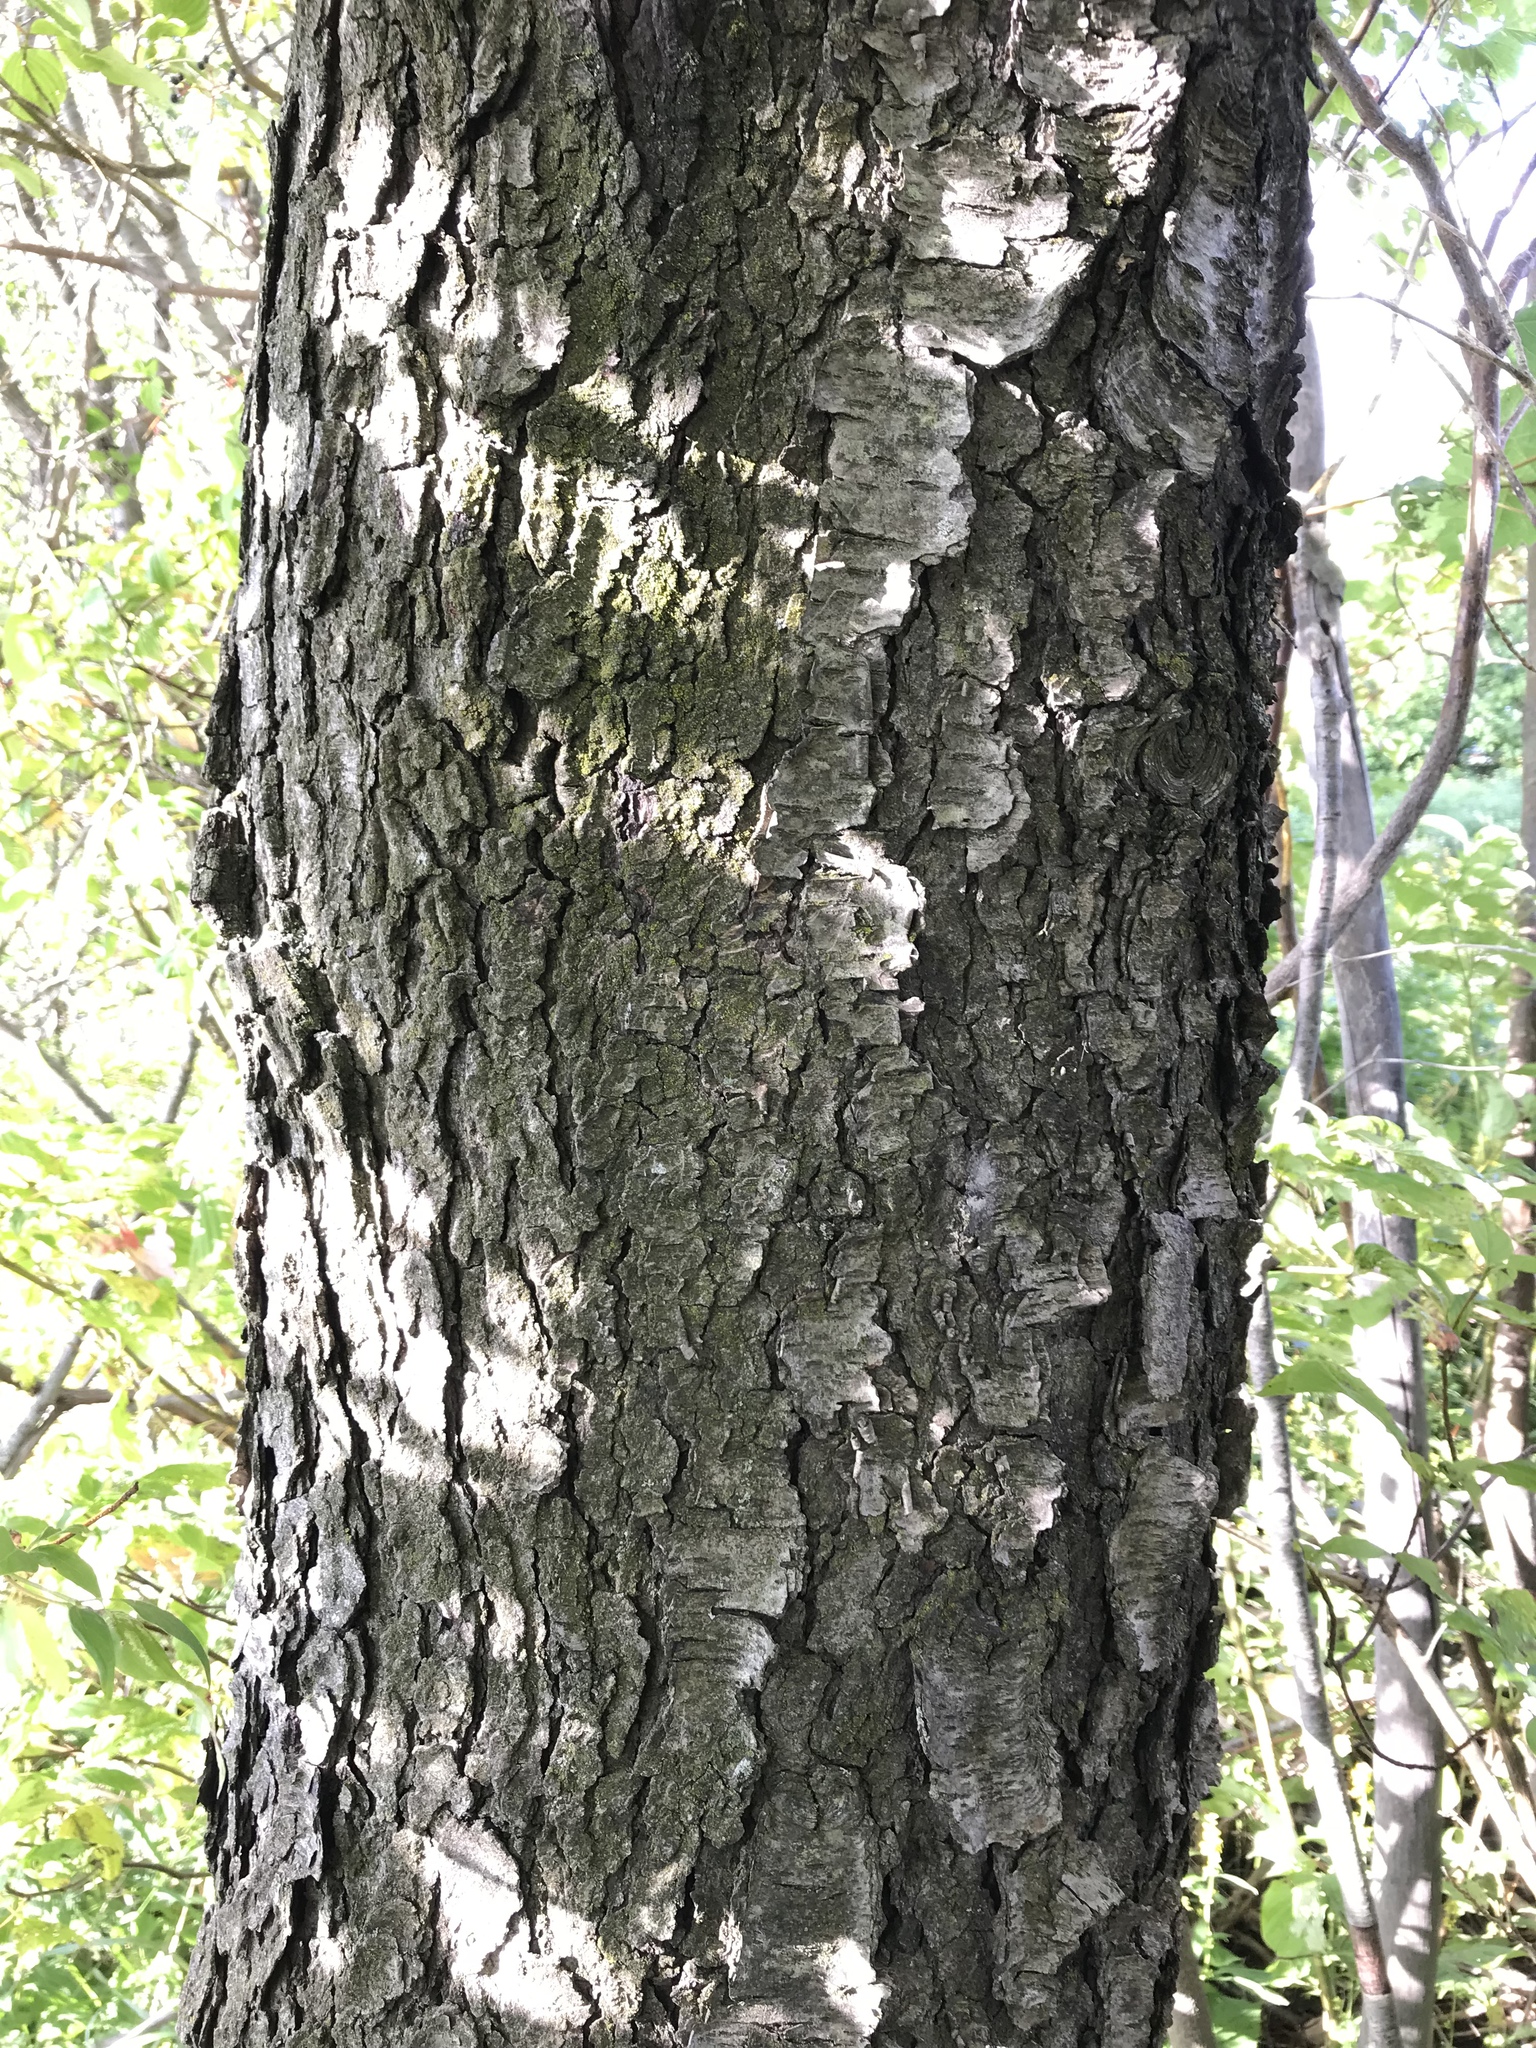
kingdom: Plantae
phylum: Tracheophyta
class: Magnoliopsida
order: Rosales
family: Rosaceae
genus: Prunus
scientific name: Prunus serotina
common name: Black cherry
